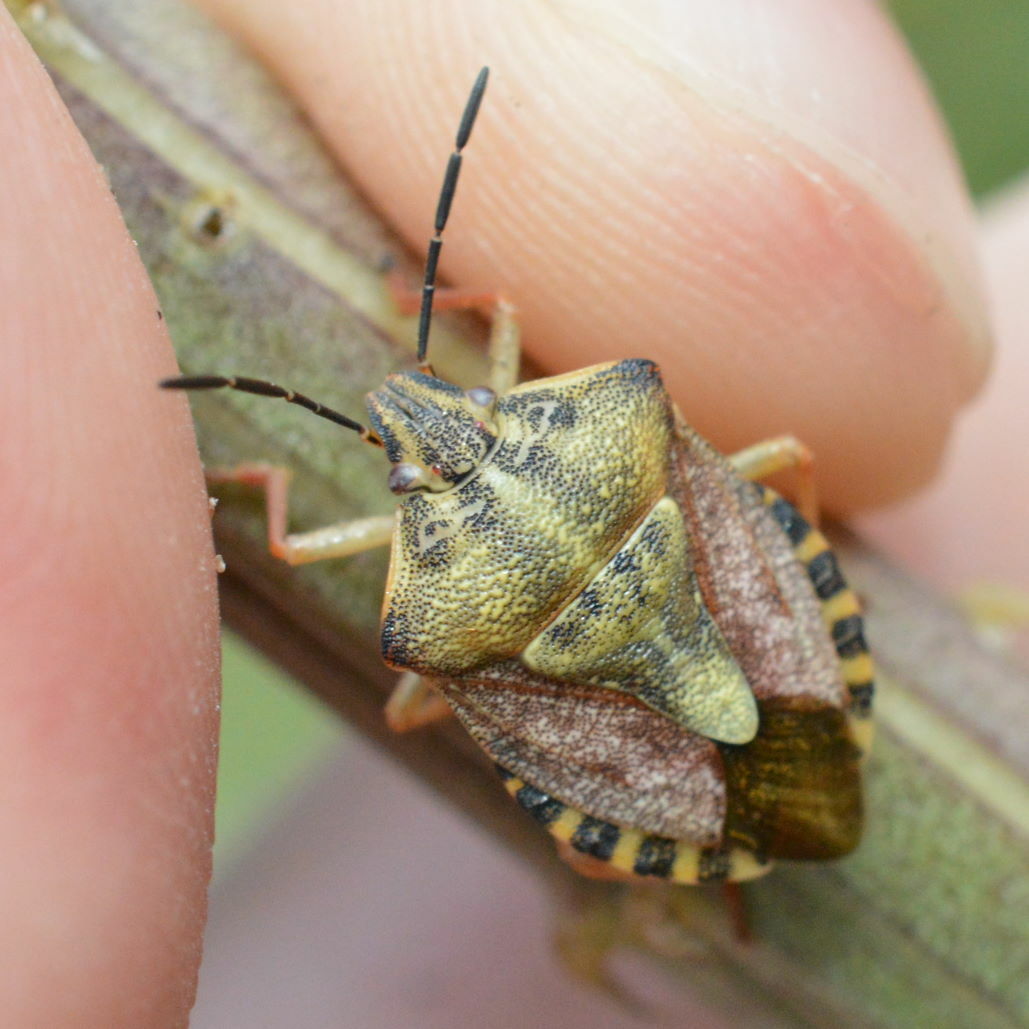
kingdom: Animalia
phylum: Arthropoda
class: Insecta
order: Hemiptera
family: Pentatomidae
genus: Carpocoris
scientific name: Carpocoris purpureipennis
